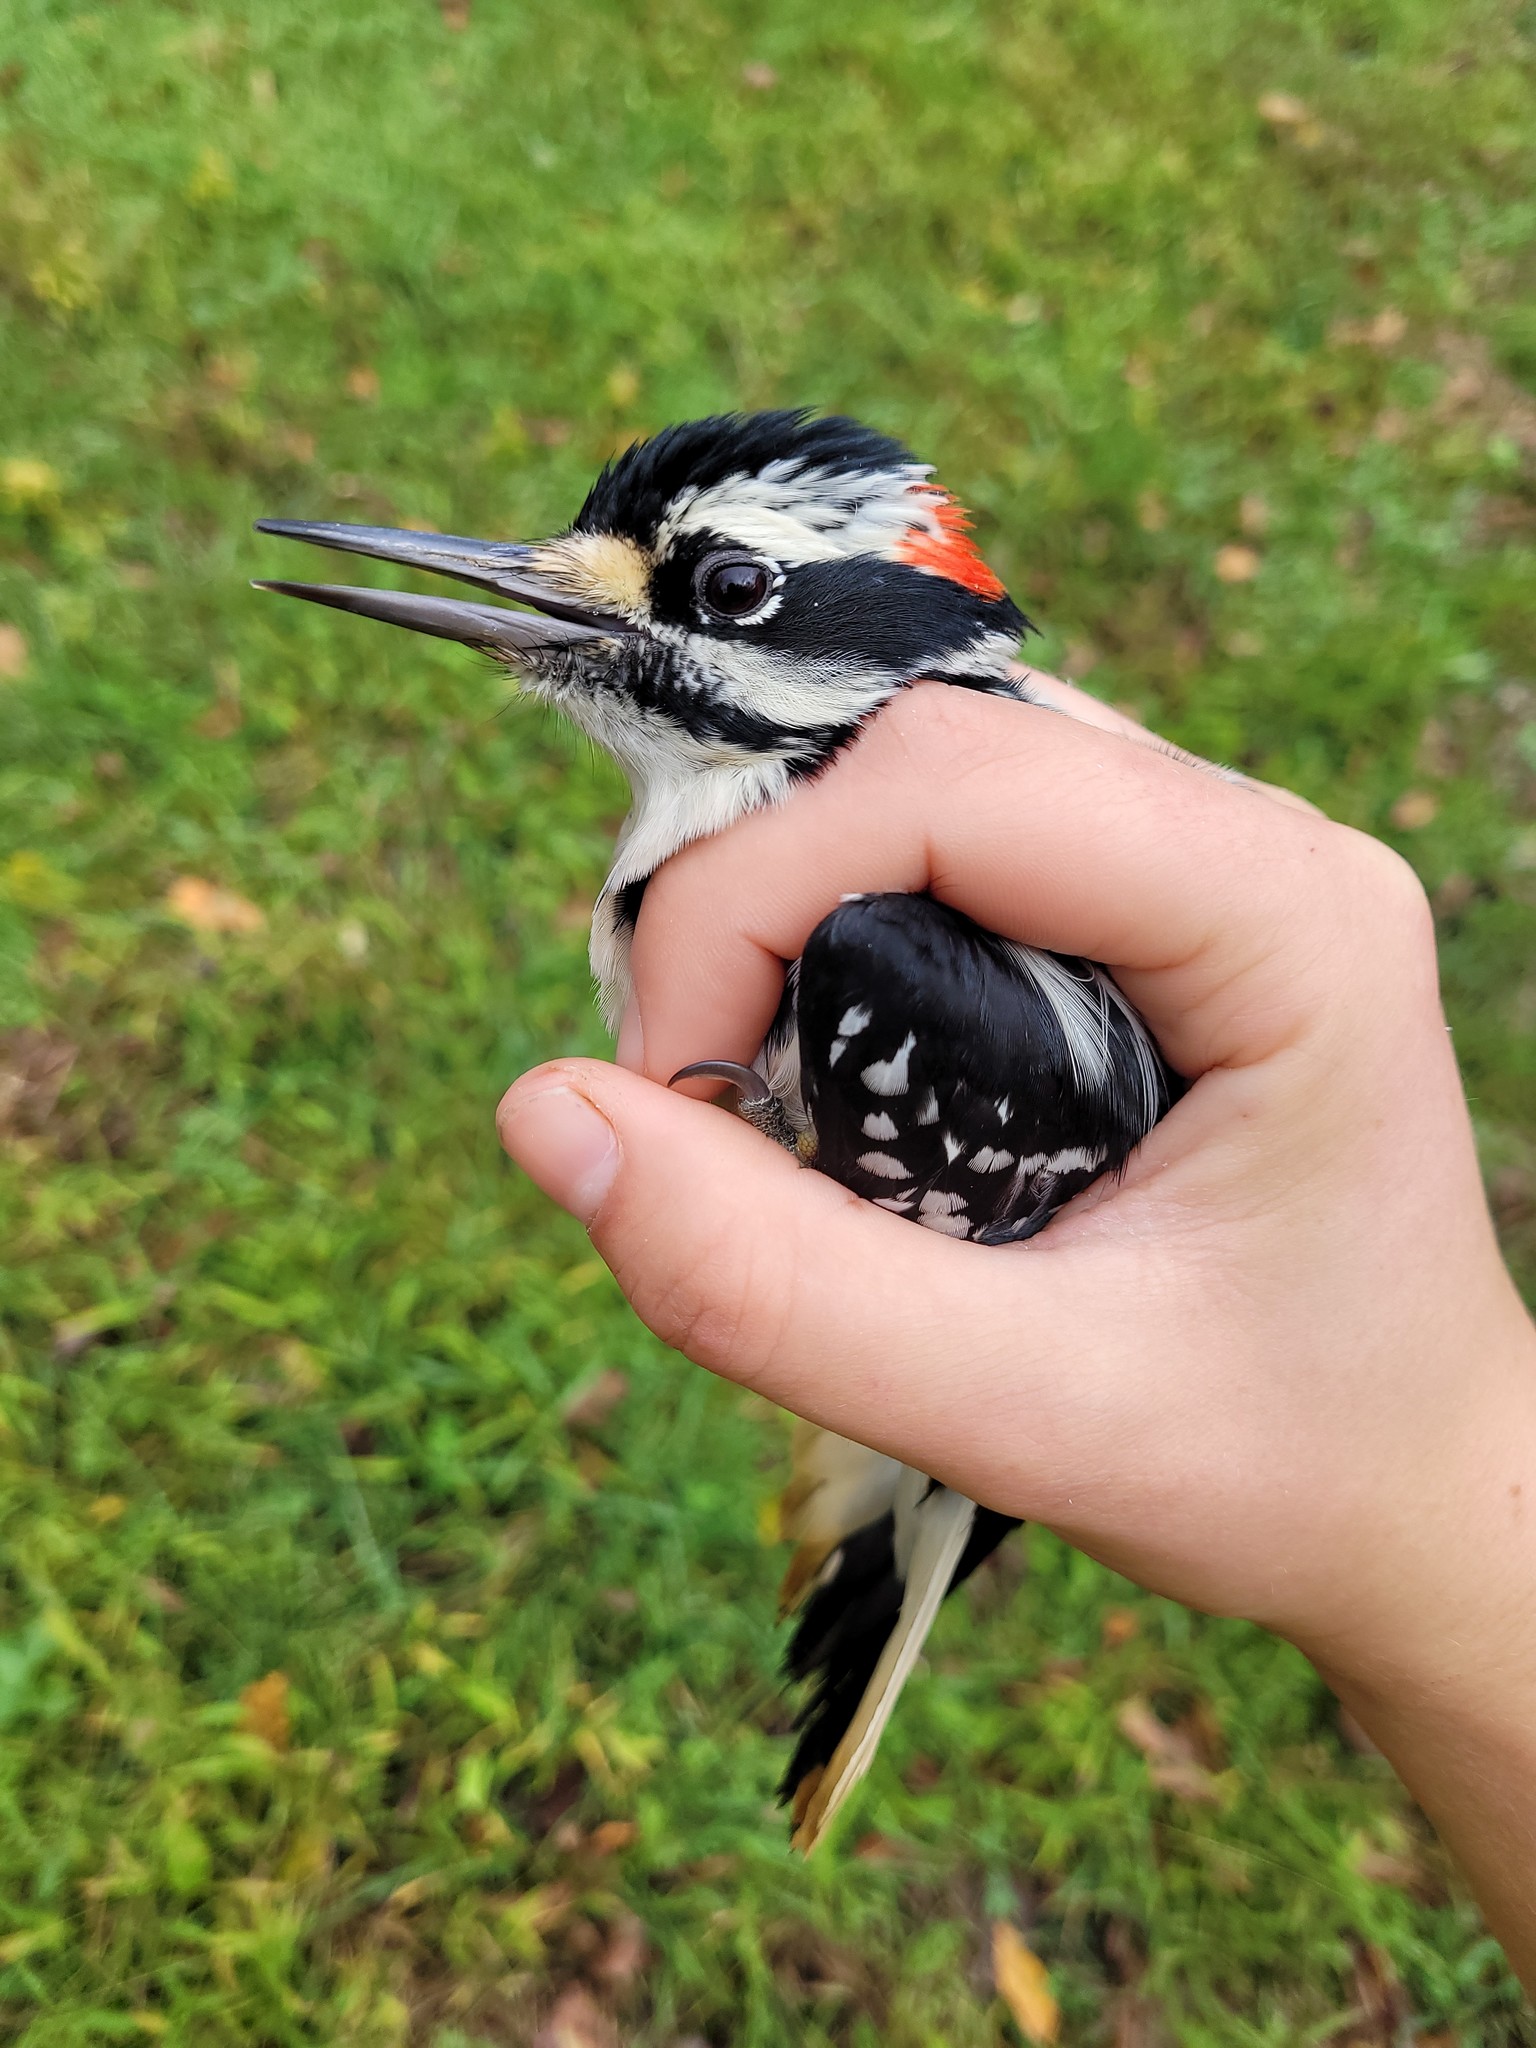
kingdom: Animalia
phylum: Chordata
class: Aves
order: Piciformes
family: Picidae
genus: Leuconotopicus
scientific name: Leuconotopicus villosus
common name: Hairy woodpecker
